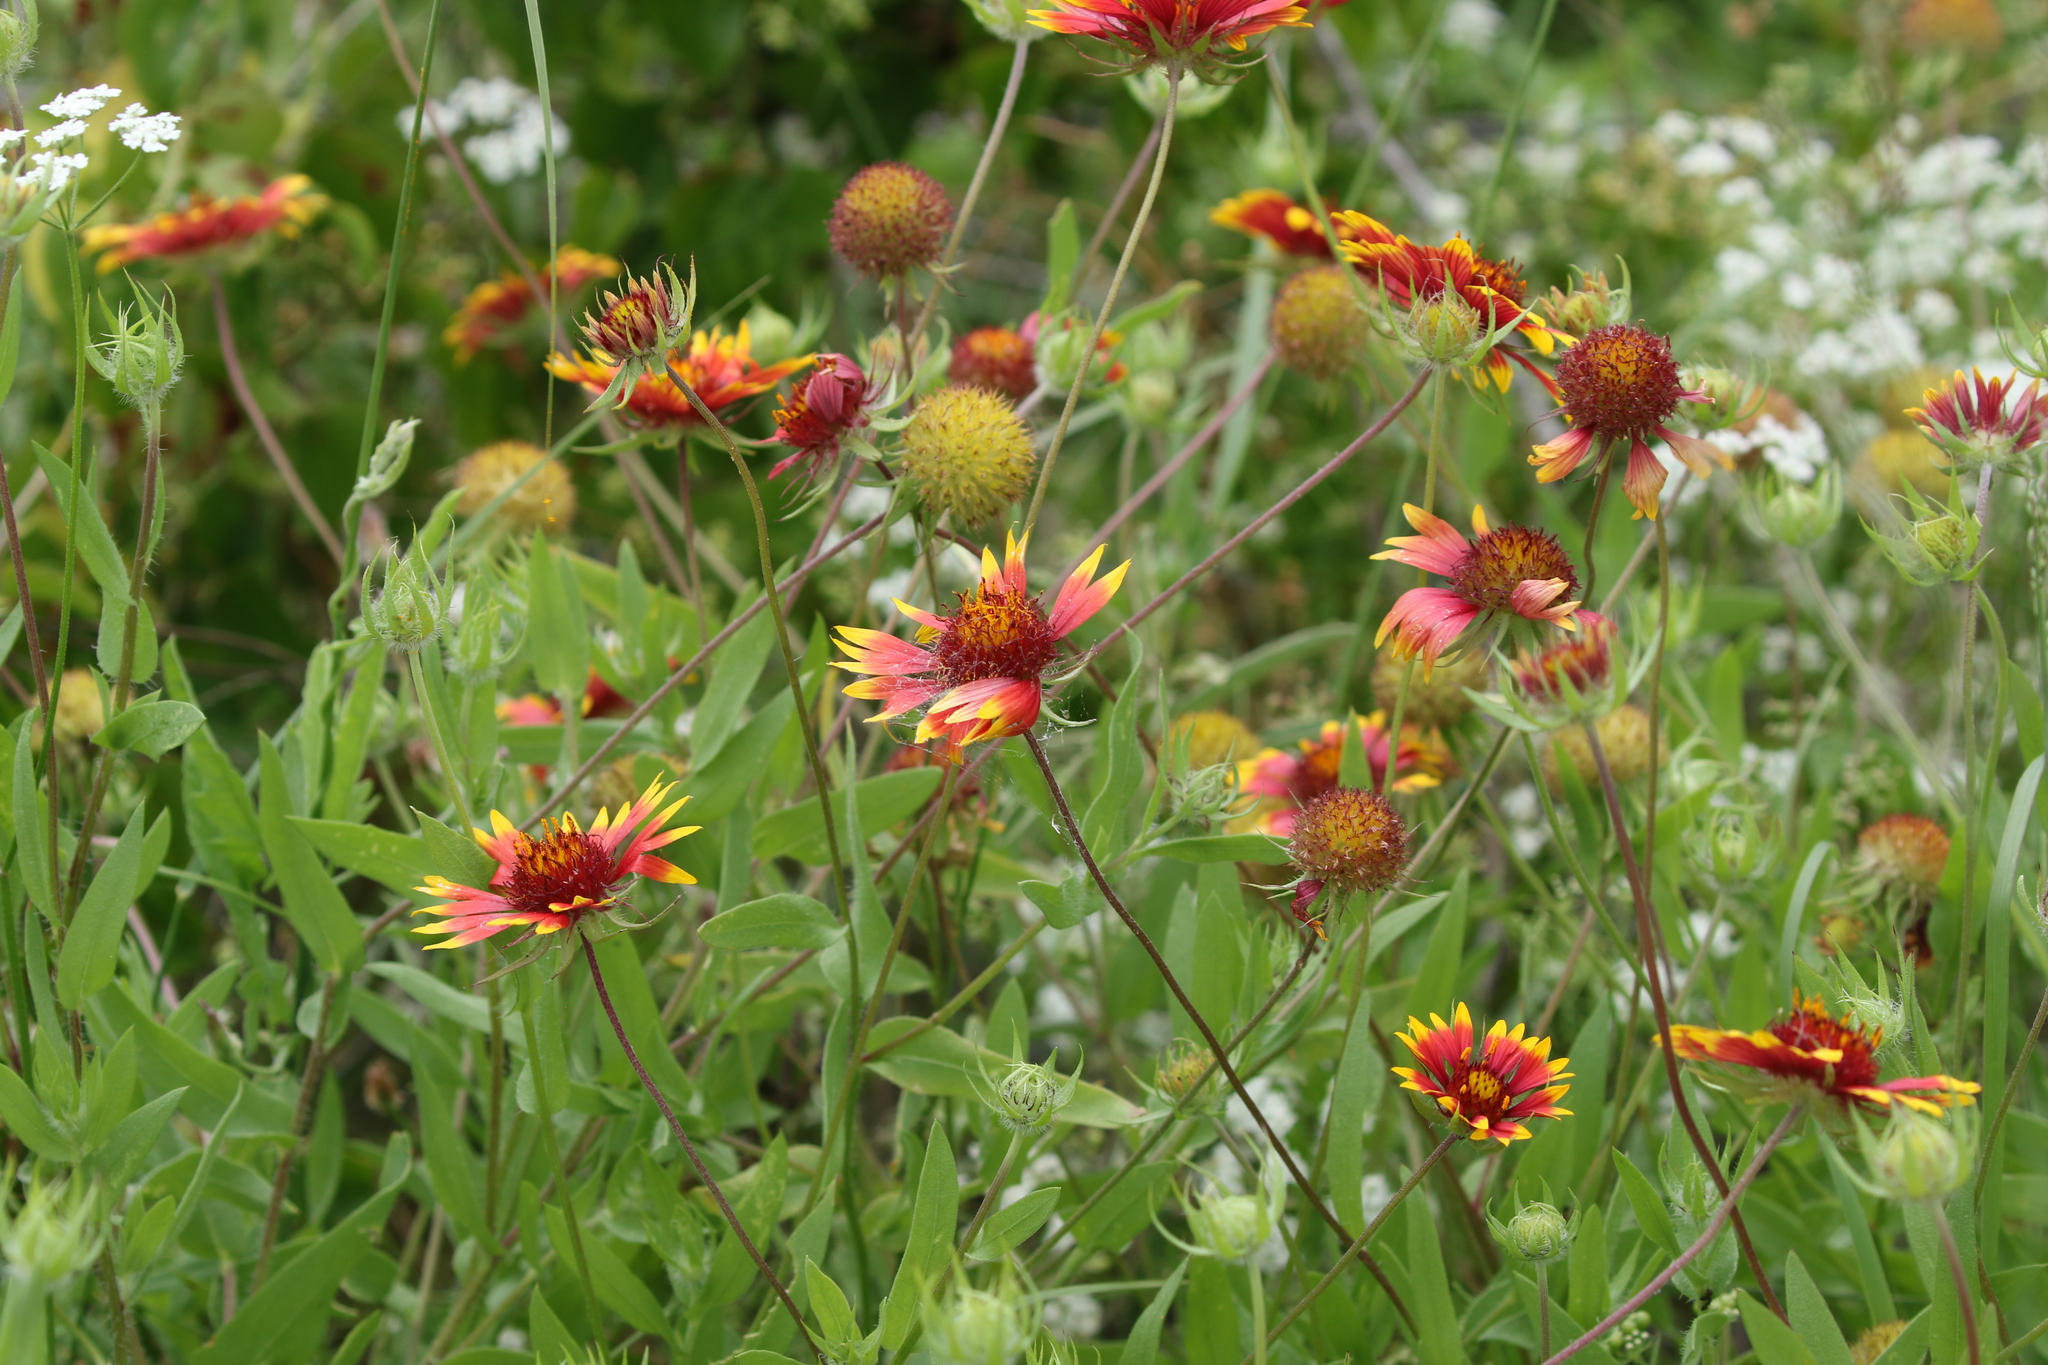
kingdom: Plantae
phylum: Tracheophyta
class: Magnoliopsida
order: Asterales
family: Asteraceae
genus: Gaillardia
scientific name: Gaillardia pulchella
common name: Firewheel
